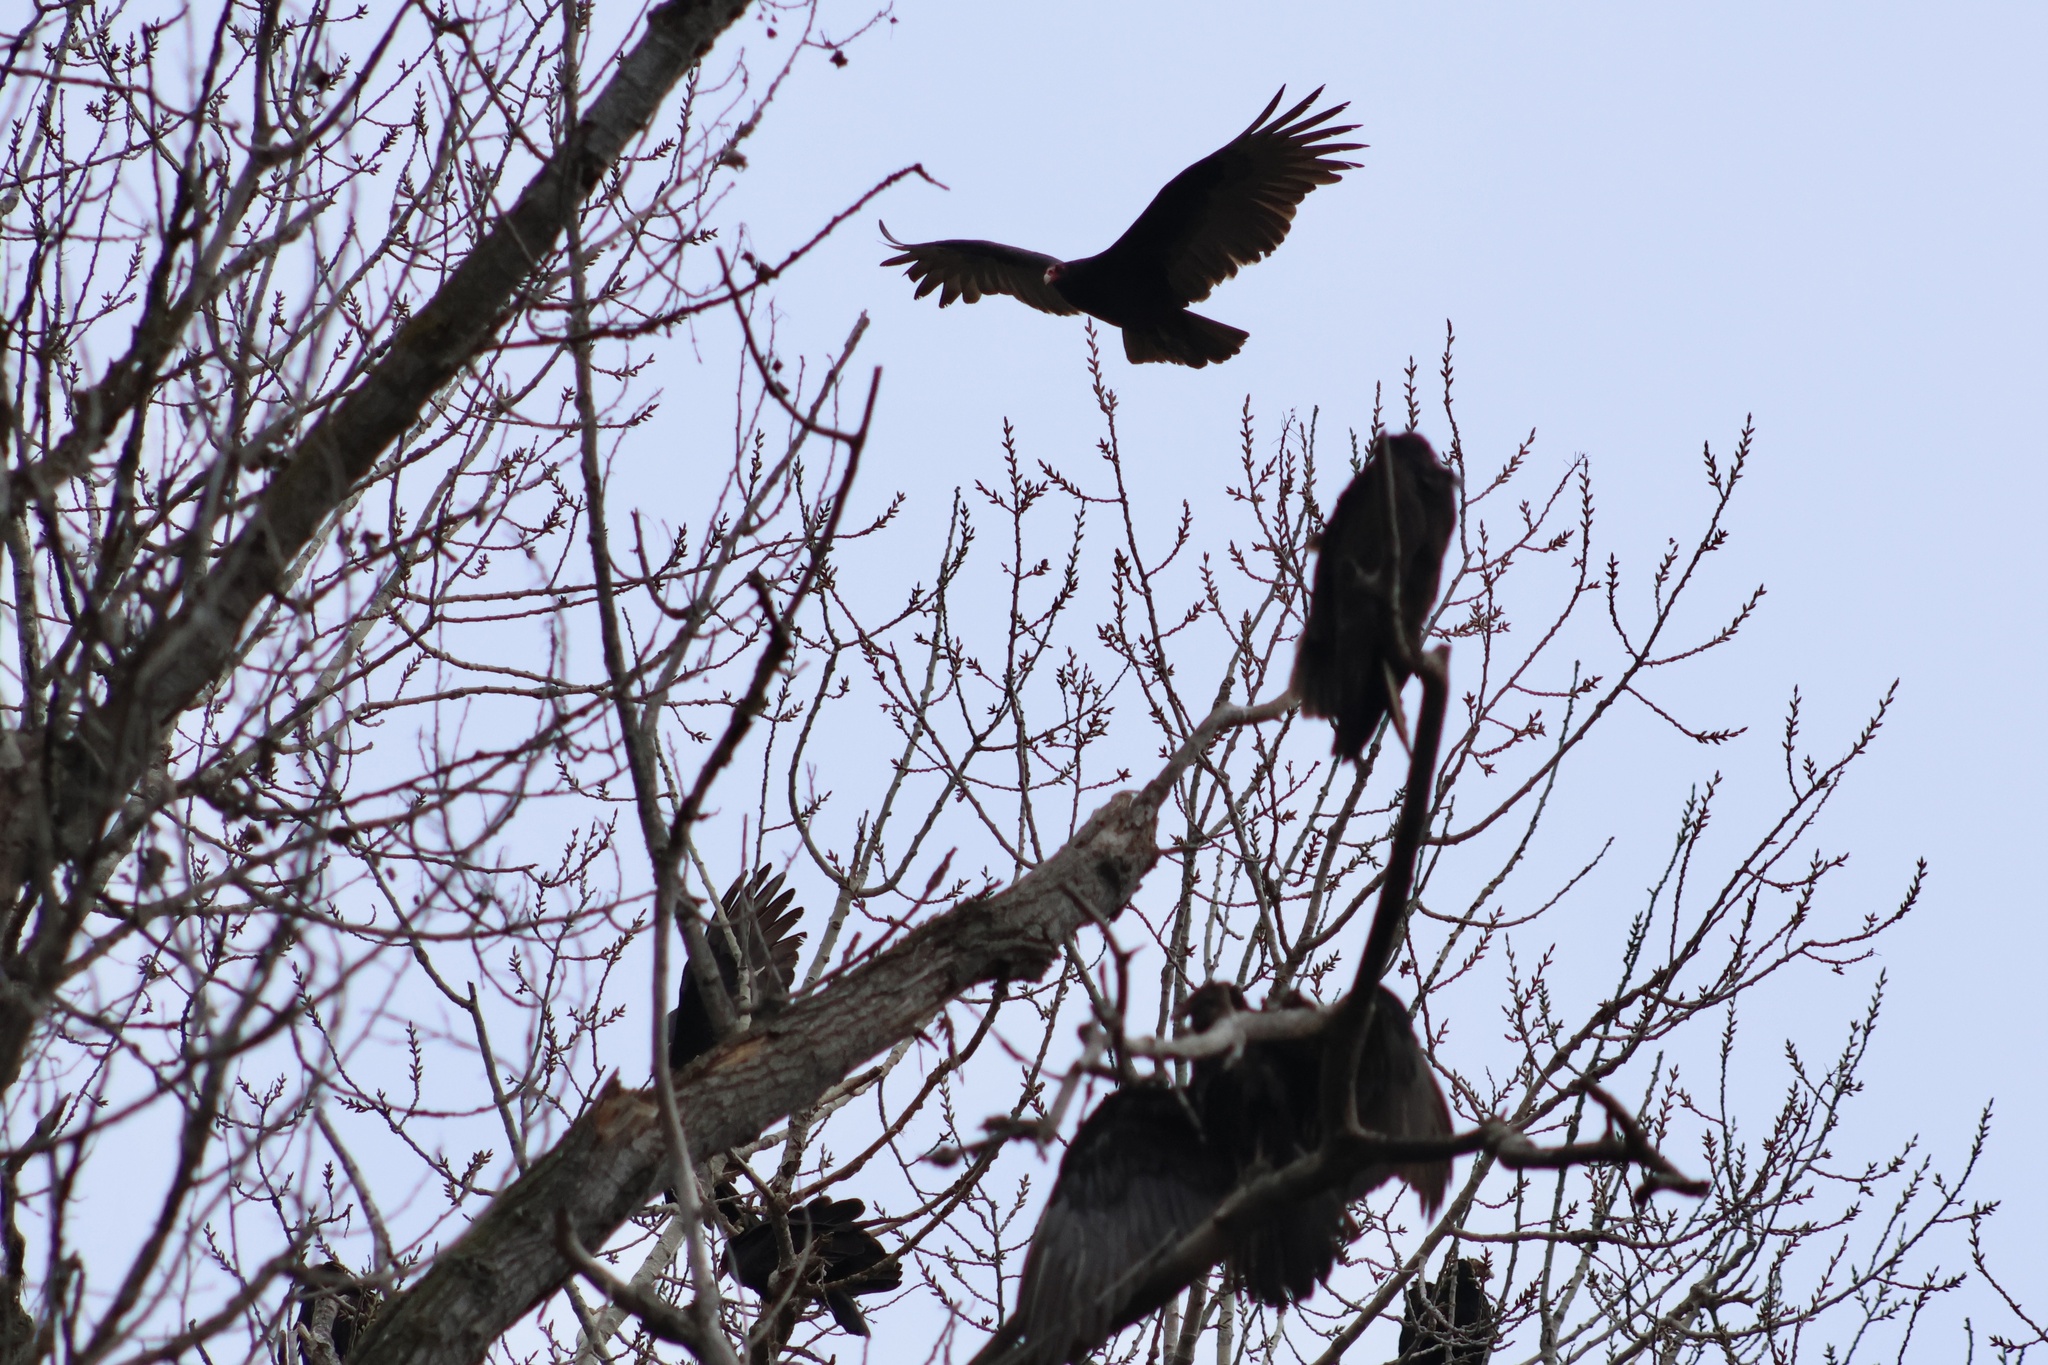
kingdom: Animalia
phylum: Chordata
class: Aves
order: Accipitriformes
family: Cathartidae
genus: Cathartes
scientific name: Cathartes aura
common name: Turkey vulture
